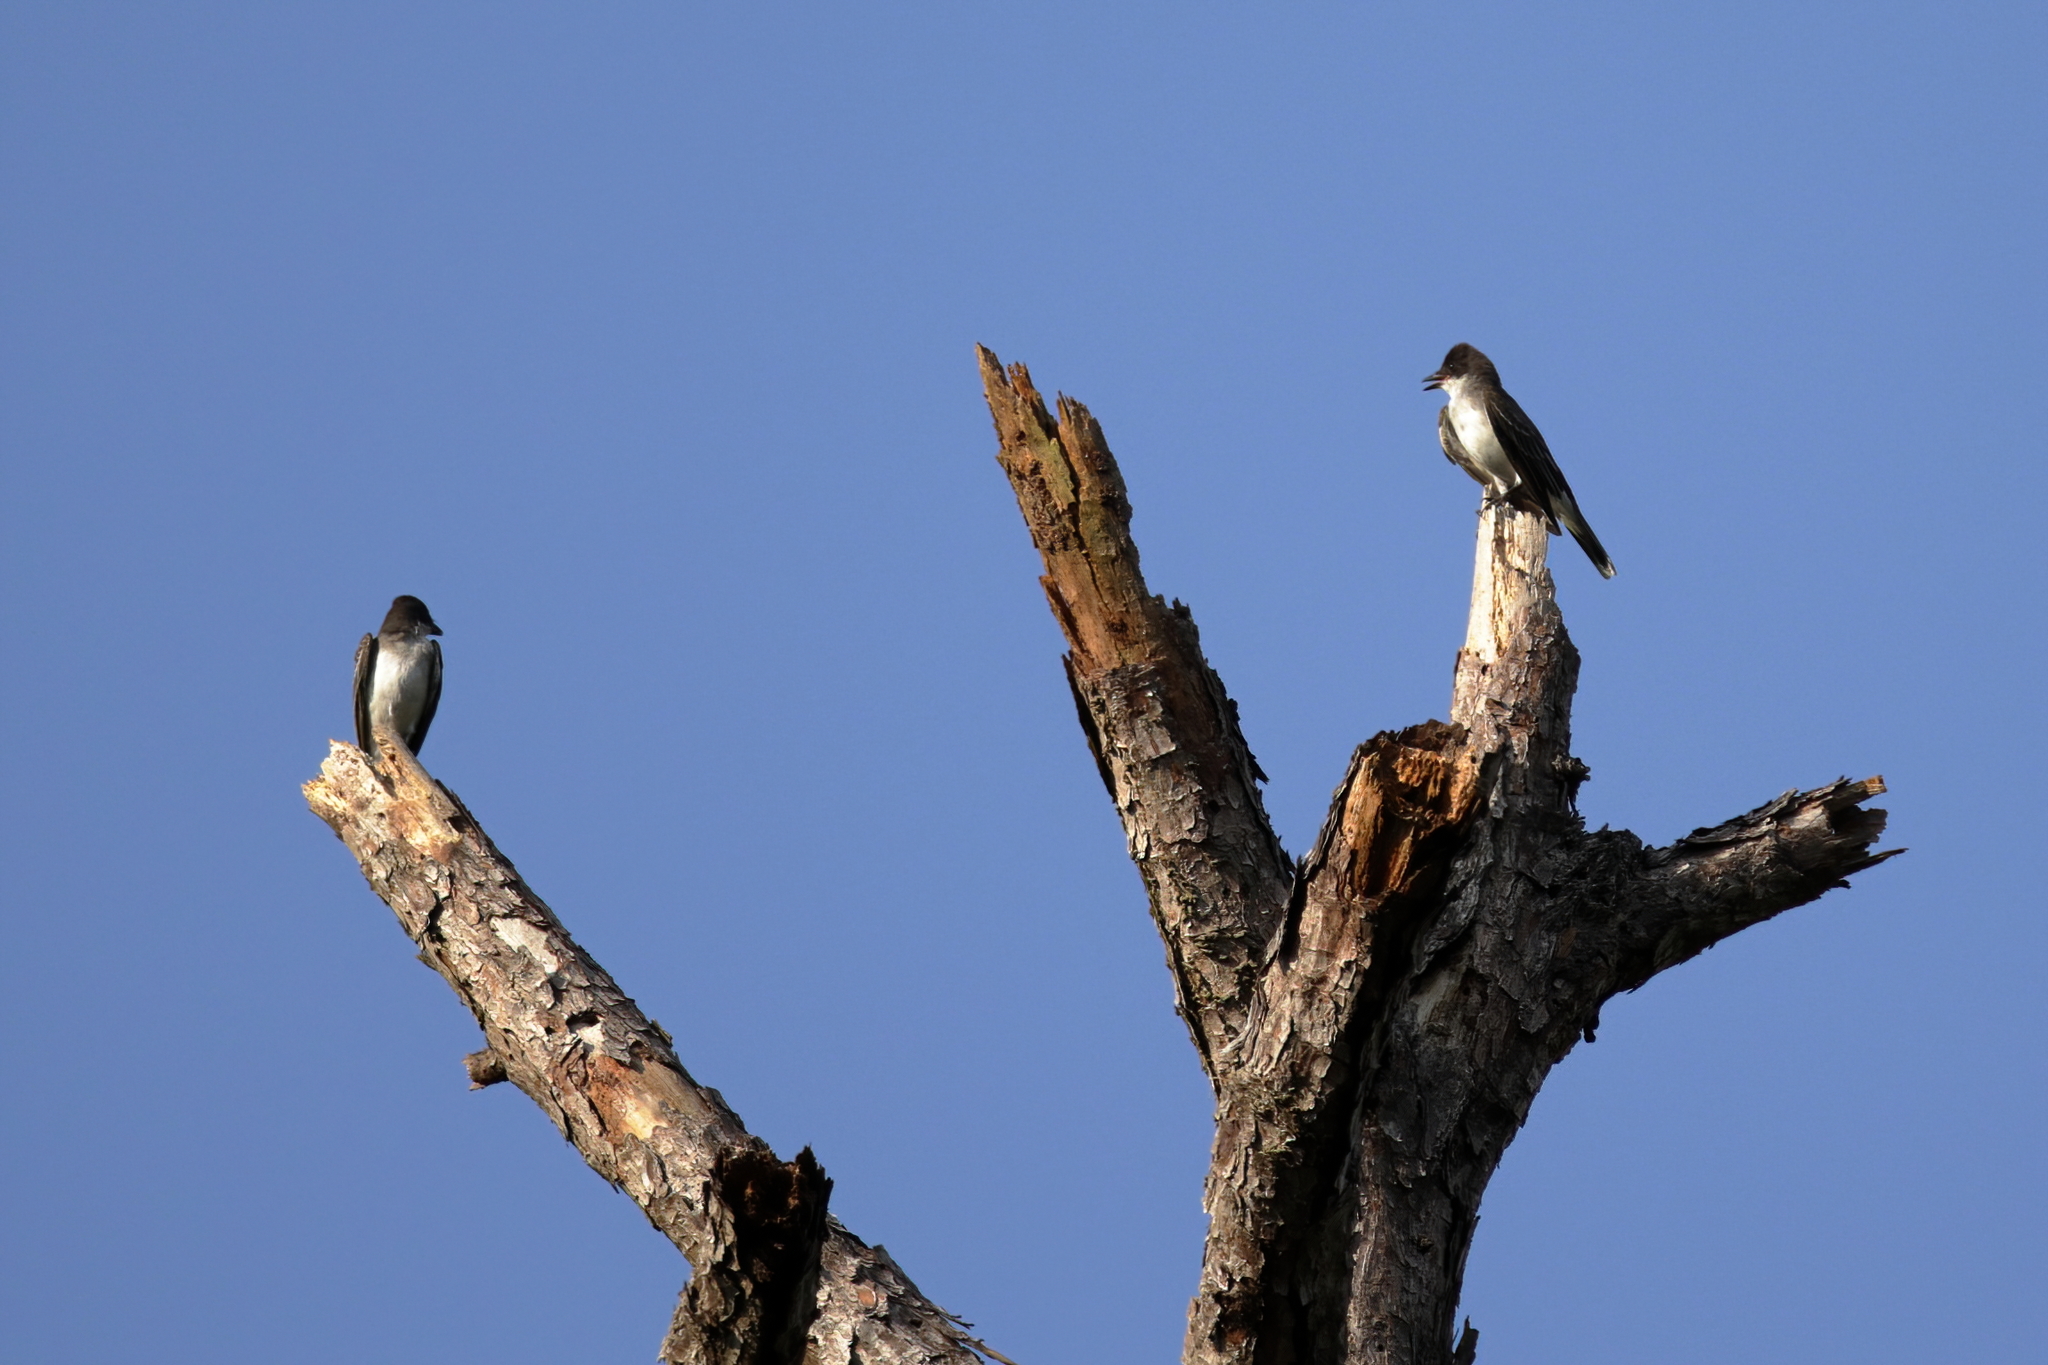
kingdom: Animalia
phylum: Chordata
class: Aves
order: Passeriformes
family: Tyrannidae
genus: Tyrannus
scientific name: Tyrannus tyrannus
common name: Eastern kingbird
